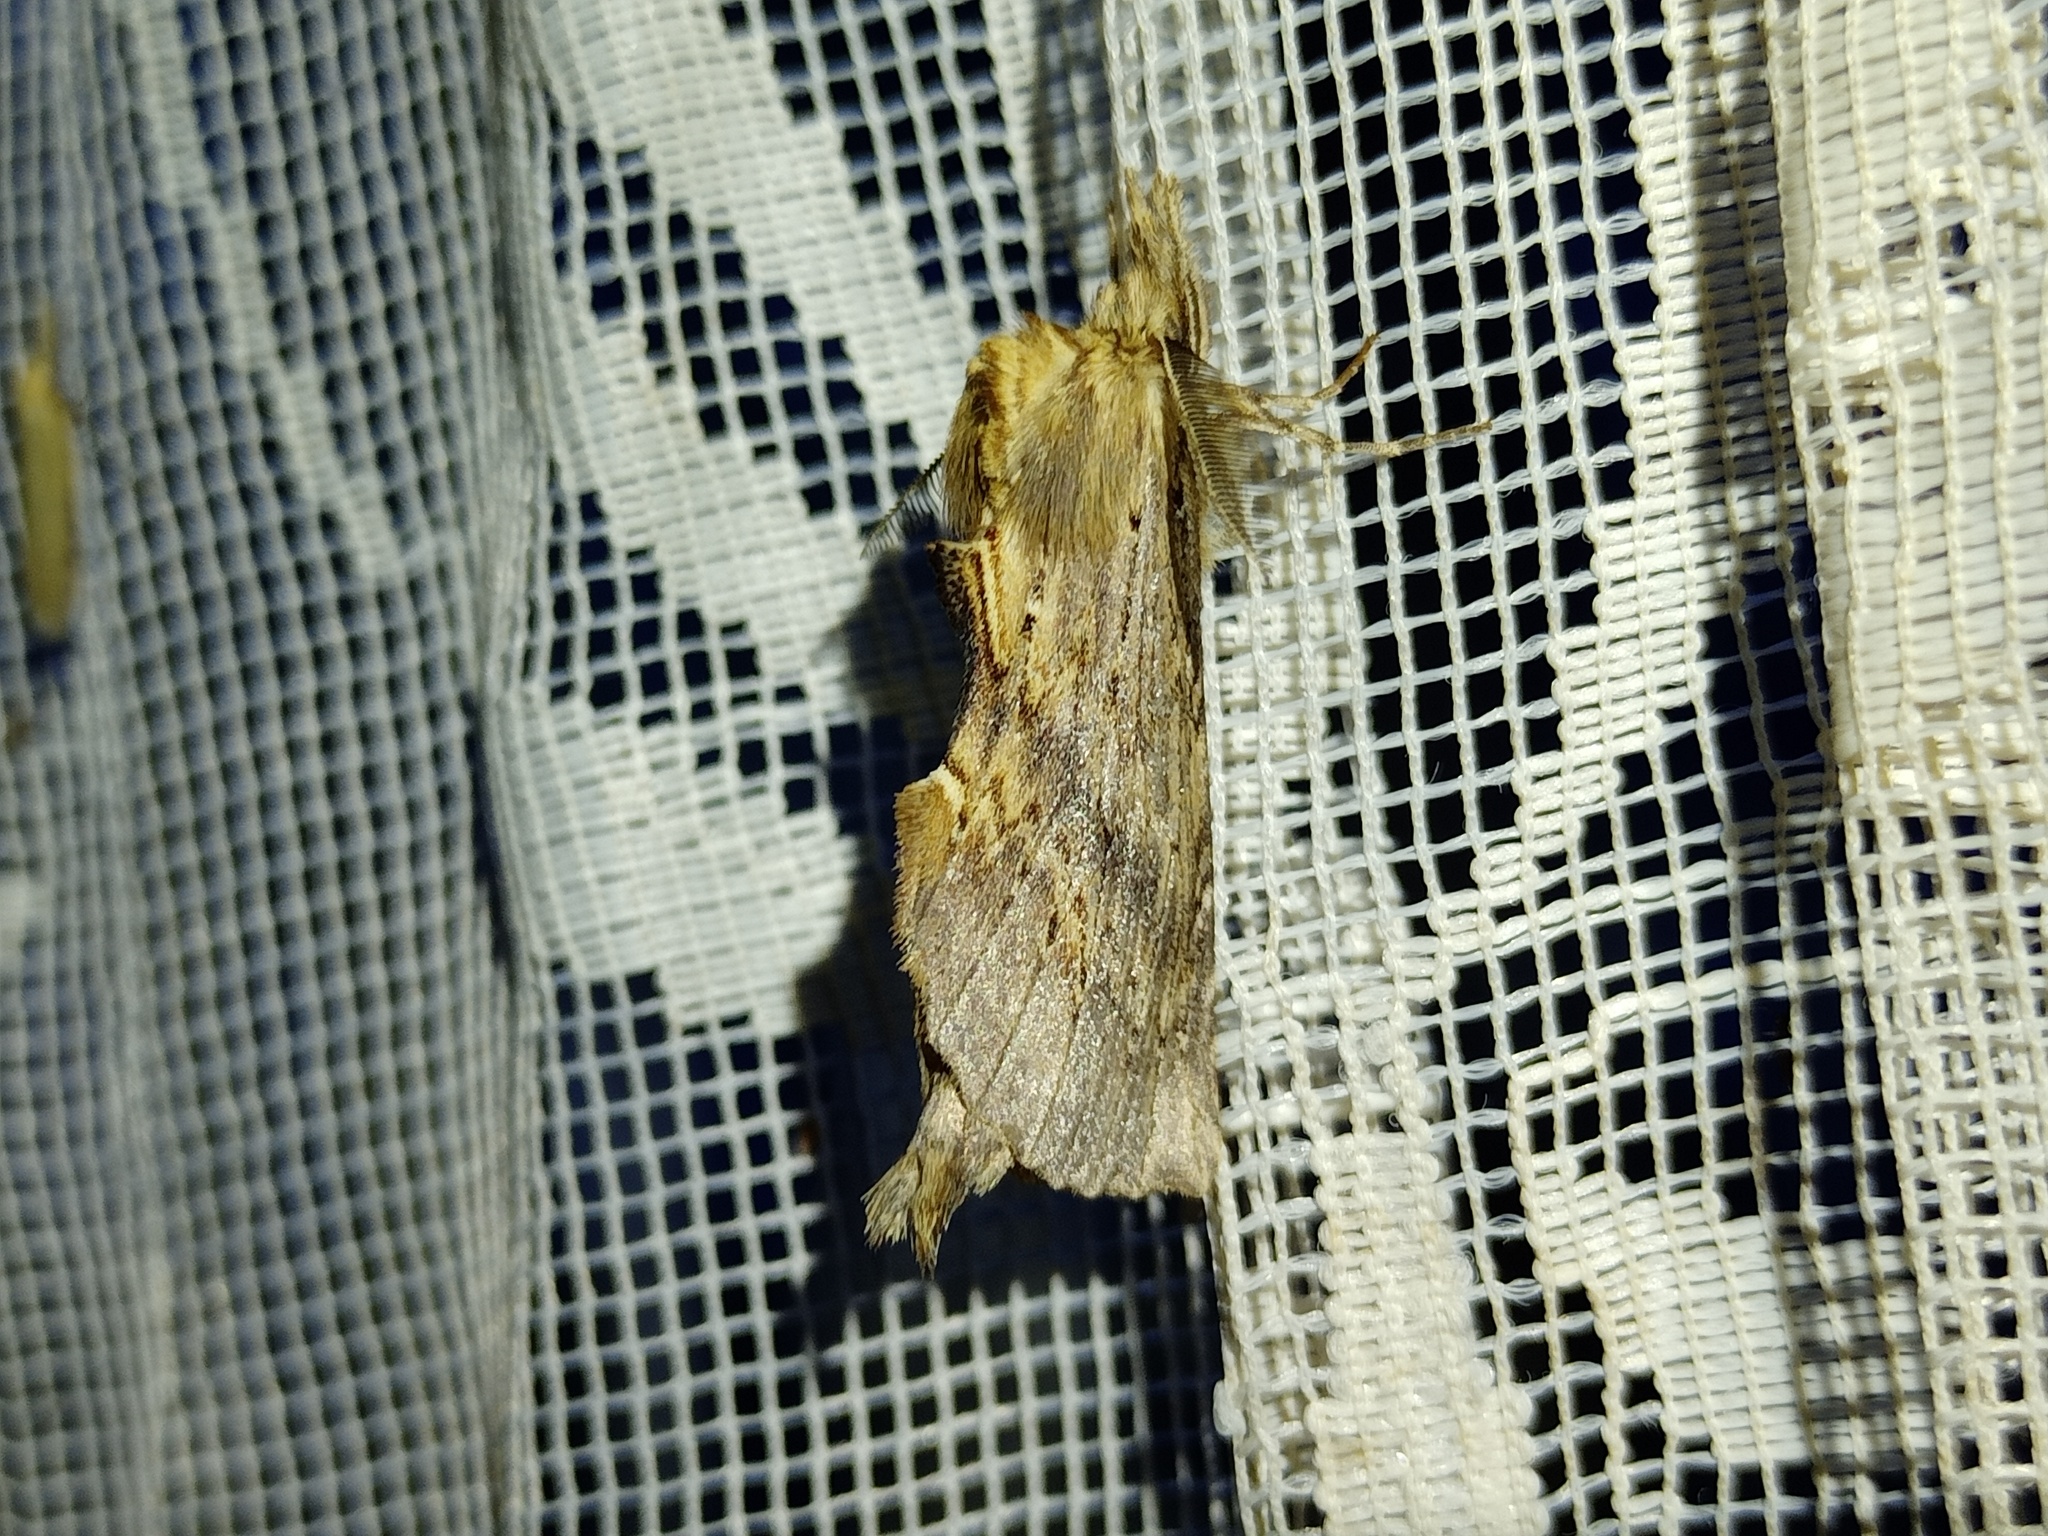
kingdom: Animalia
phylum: Arthropoda
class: Insecta
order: Lepidoptera
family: Notodontidae
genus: Pterostoma
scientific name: Pterostoma palpina
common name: Pale prominent
